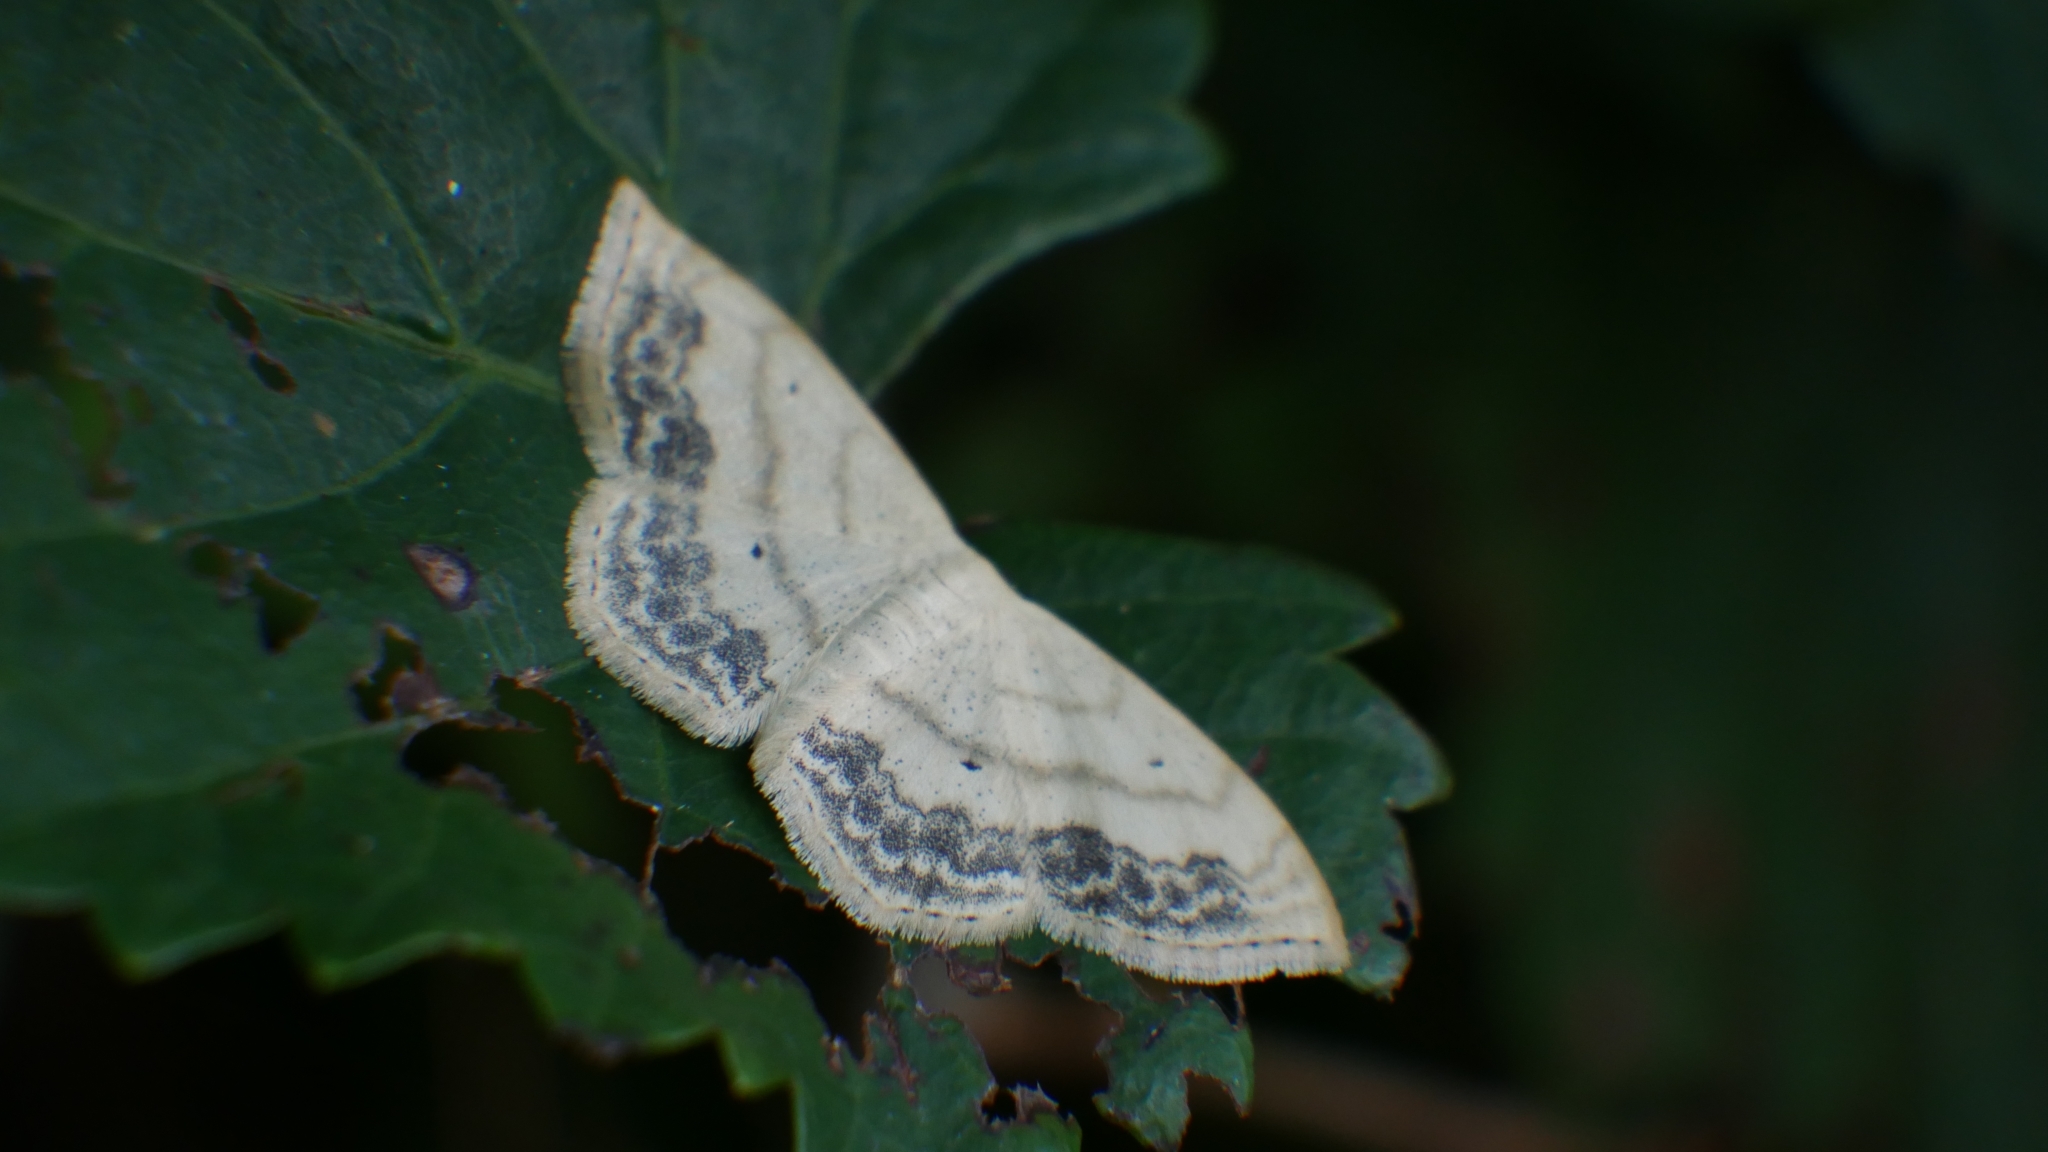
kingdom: Animalia
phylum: Arthropoda
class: Insecta
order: Lepidoptera
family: Geometridae
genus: Scopula
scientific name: Scopula limboundata
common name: Large lace border
